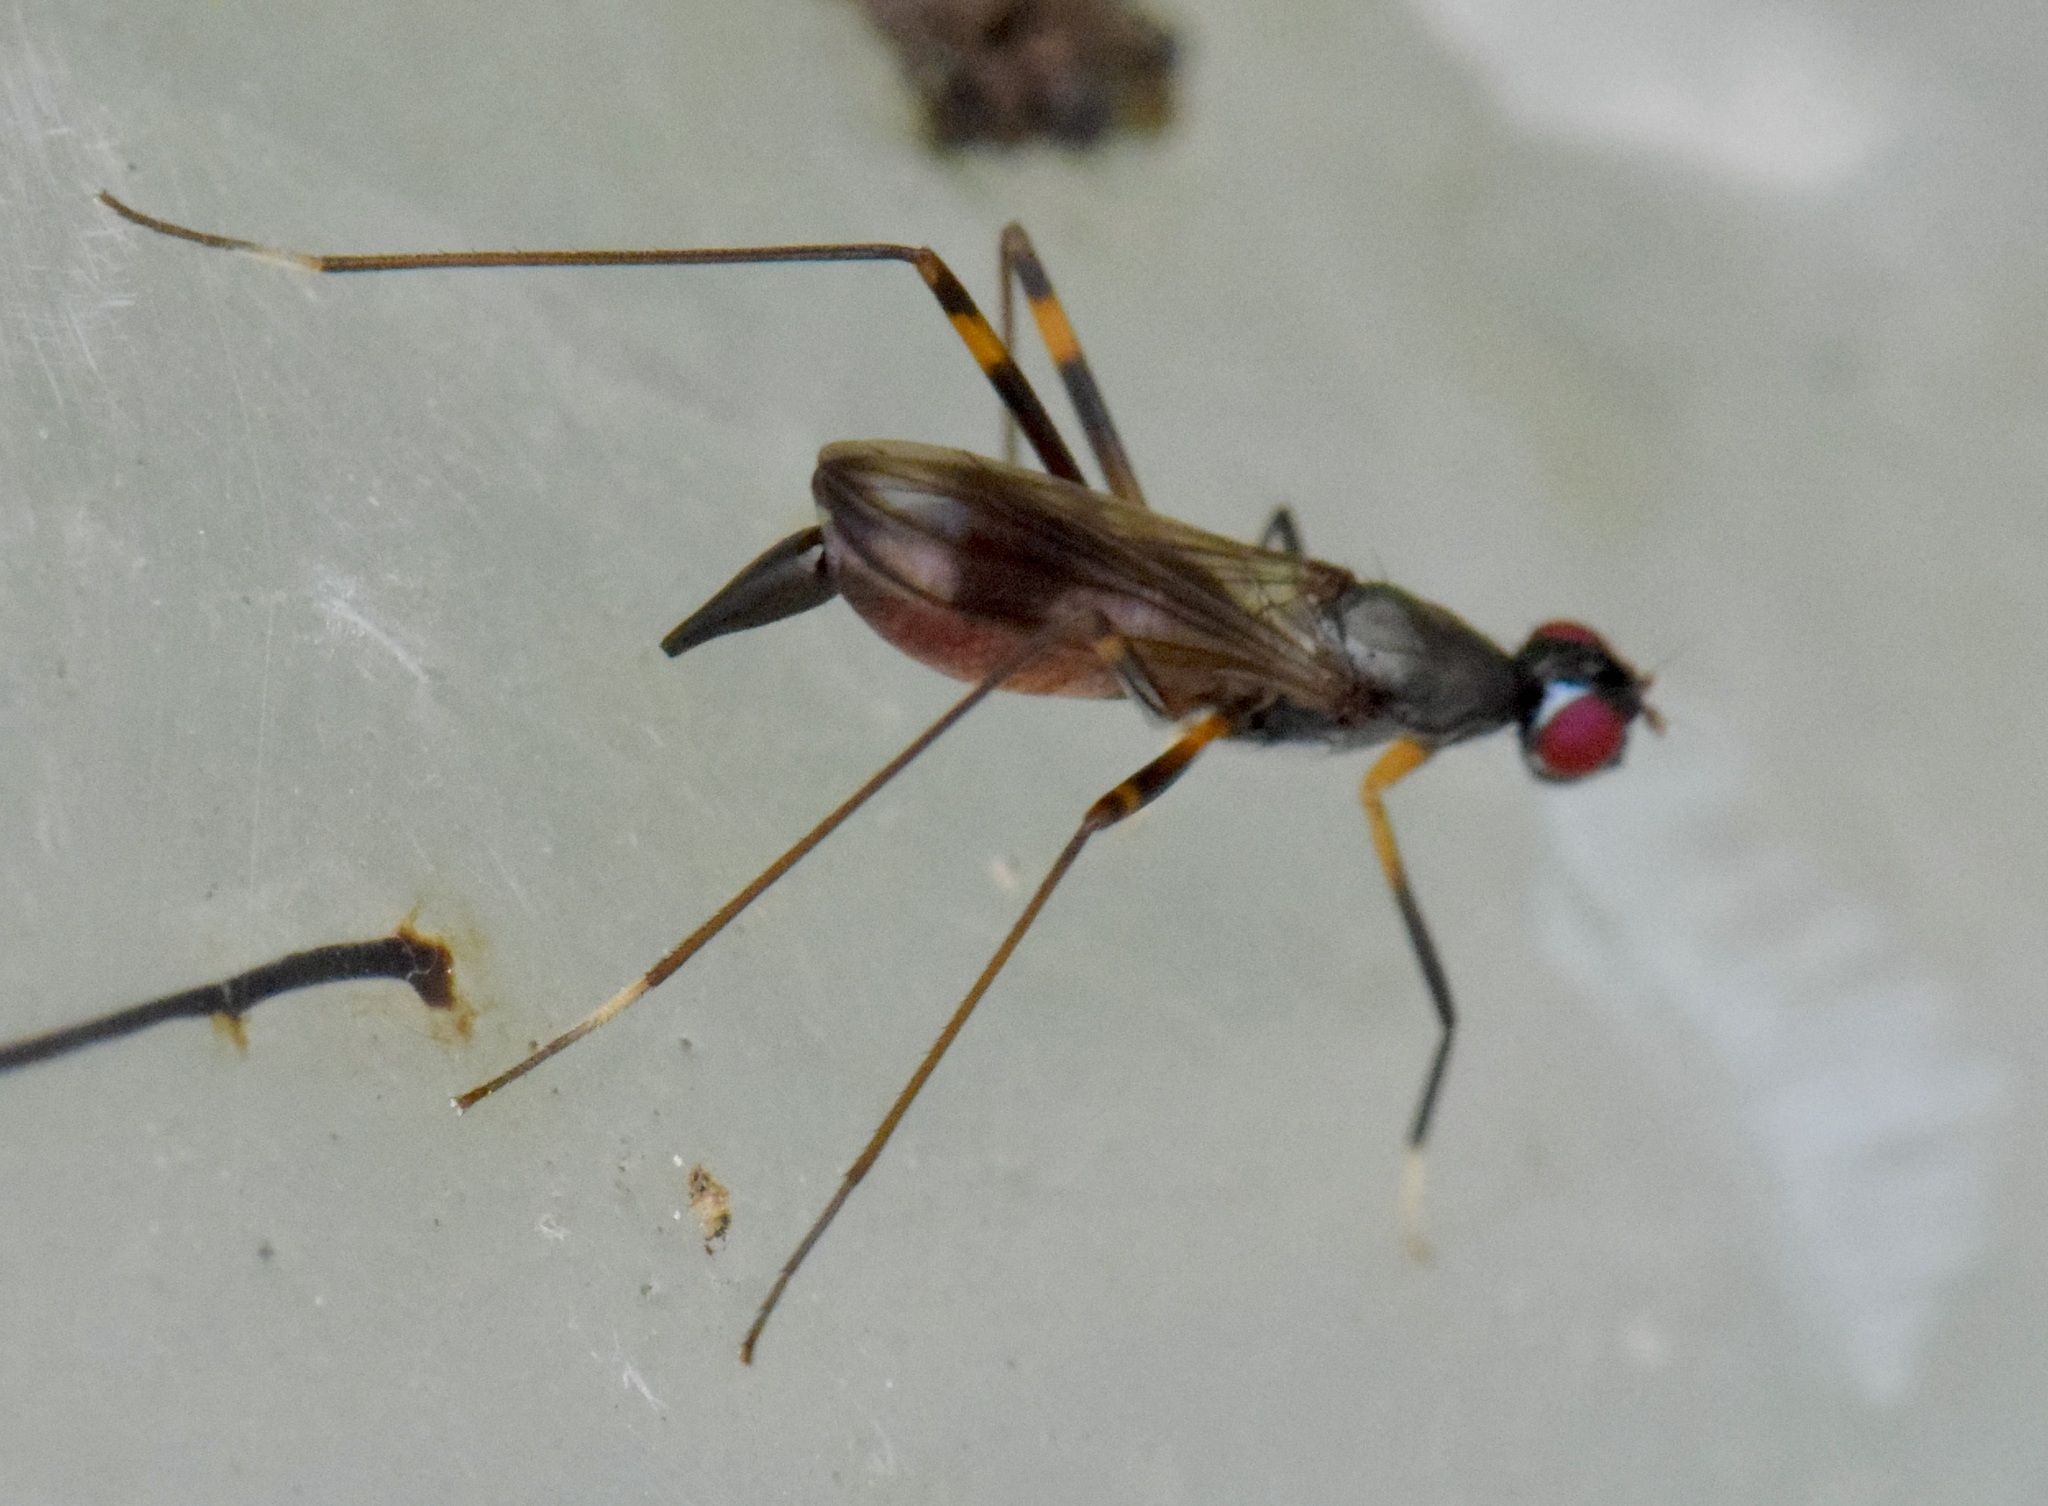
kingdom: Animalia
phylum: Arthropoda
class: Insecta
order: Diptera
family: Micropezidae
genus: Rainieria
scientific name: Rainieria antennaepes
